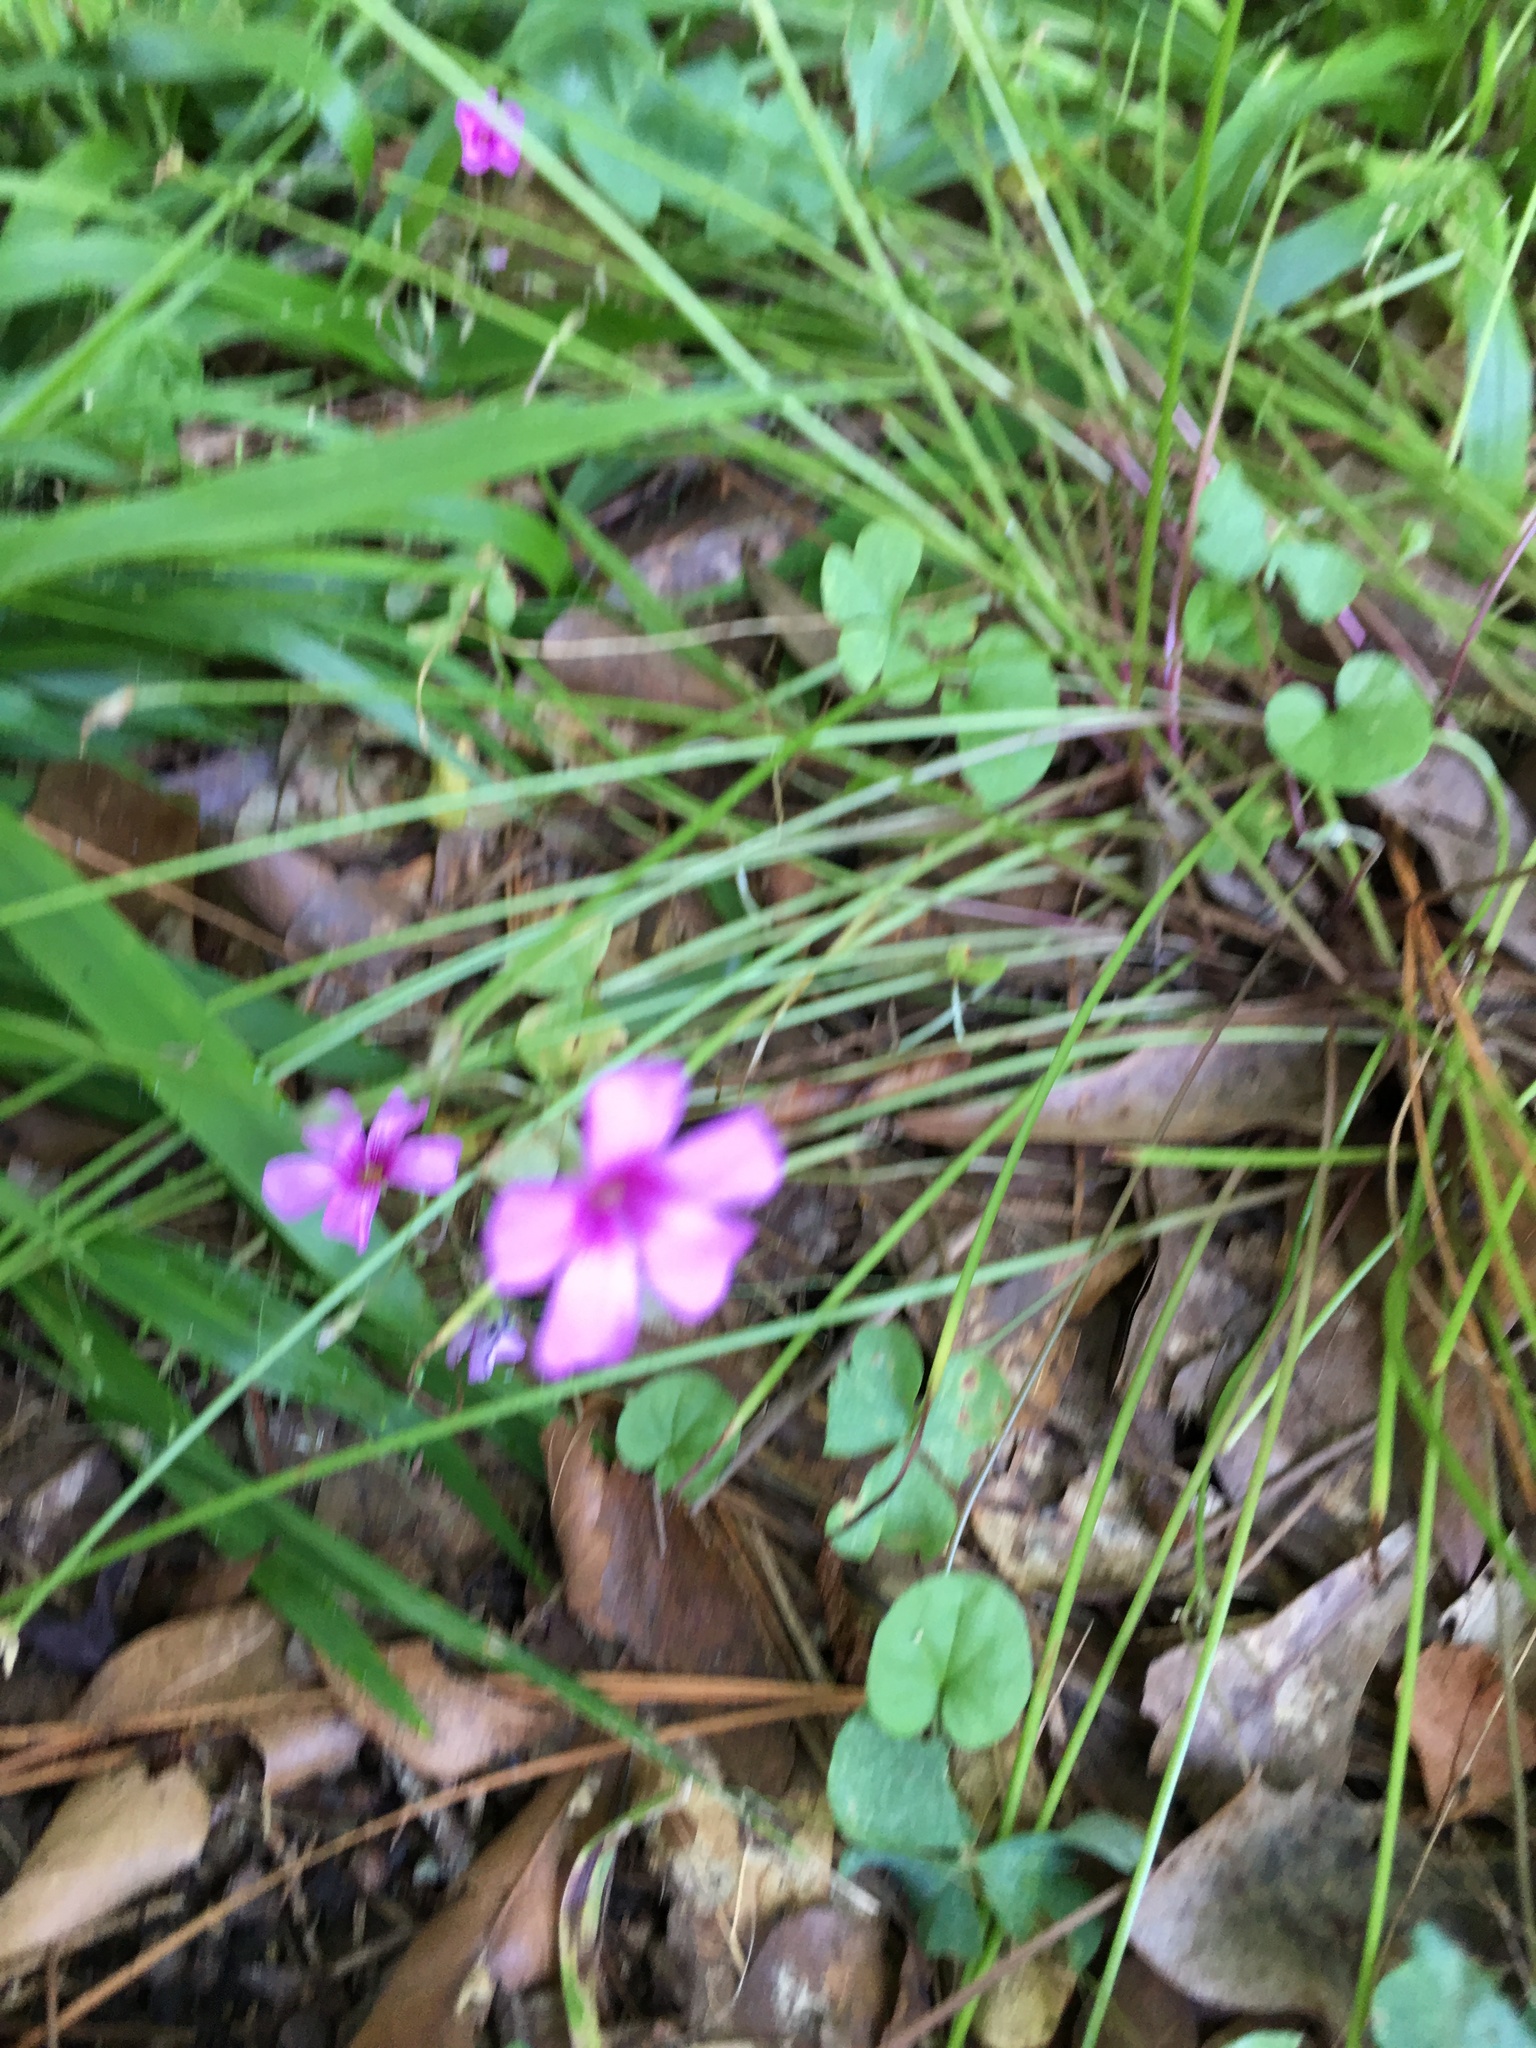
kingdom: Plantae
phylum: Tracheophyta
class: Magnoliopsida
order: Oxalidales
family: Oxalidaceae
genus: Oxalis
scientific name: Oxalis articulata
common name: Pink-sorrel
